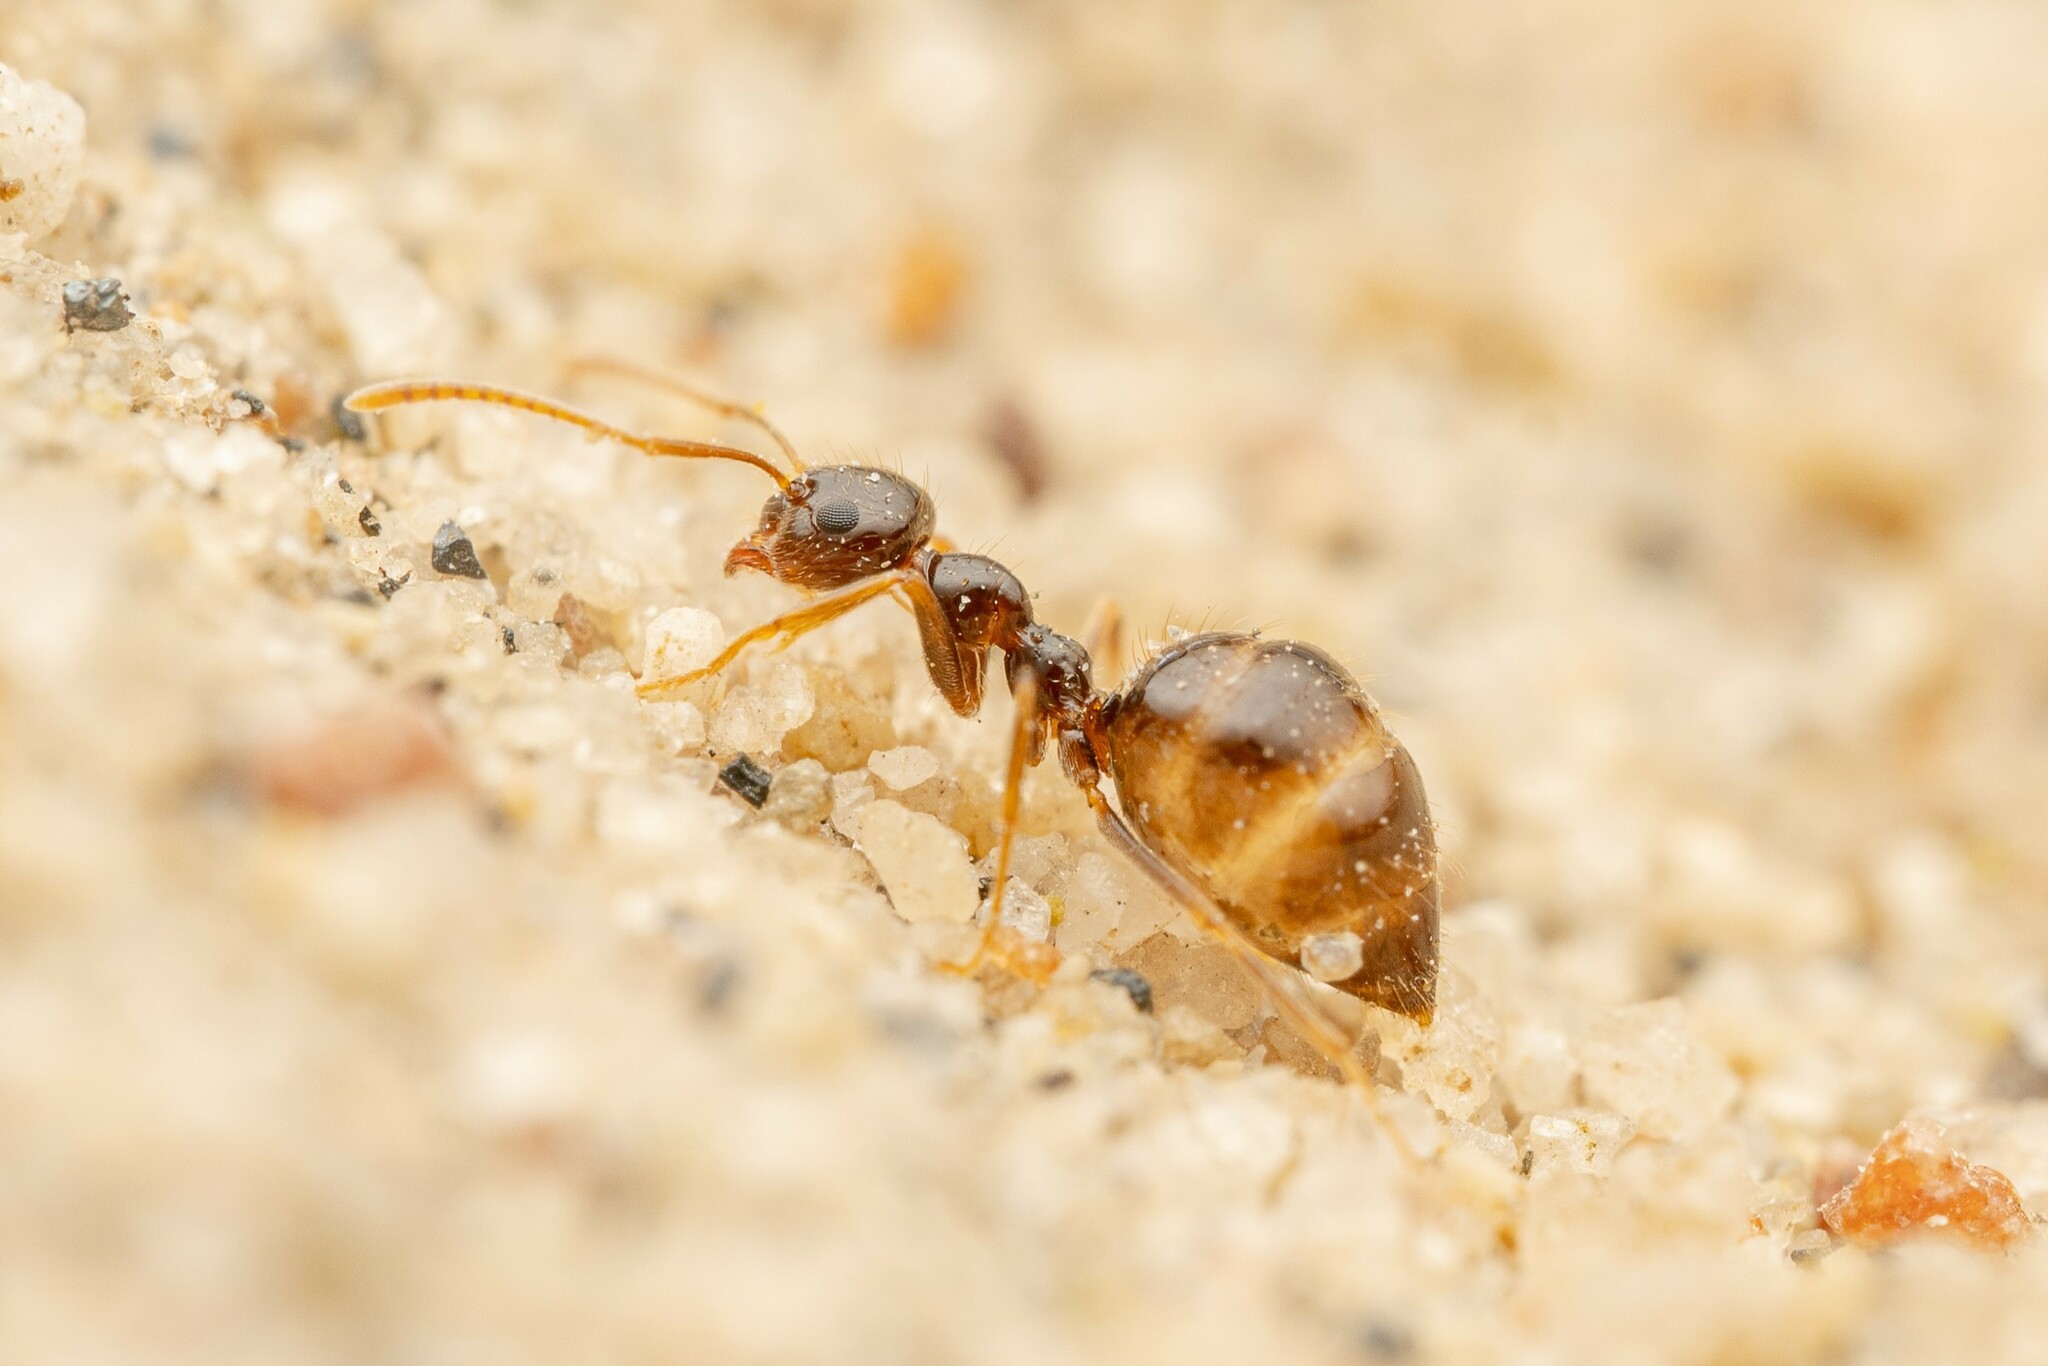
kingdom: Animalia
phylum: Arthropoda
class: Insecta
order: Hymenoptera
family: Formicidae
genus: Prenolepis
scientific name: Prenolepis imparis
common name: Small honey ant
